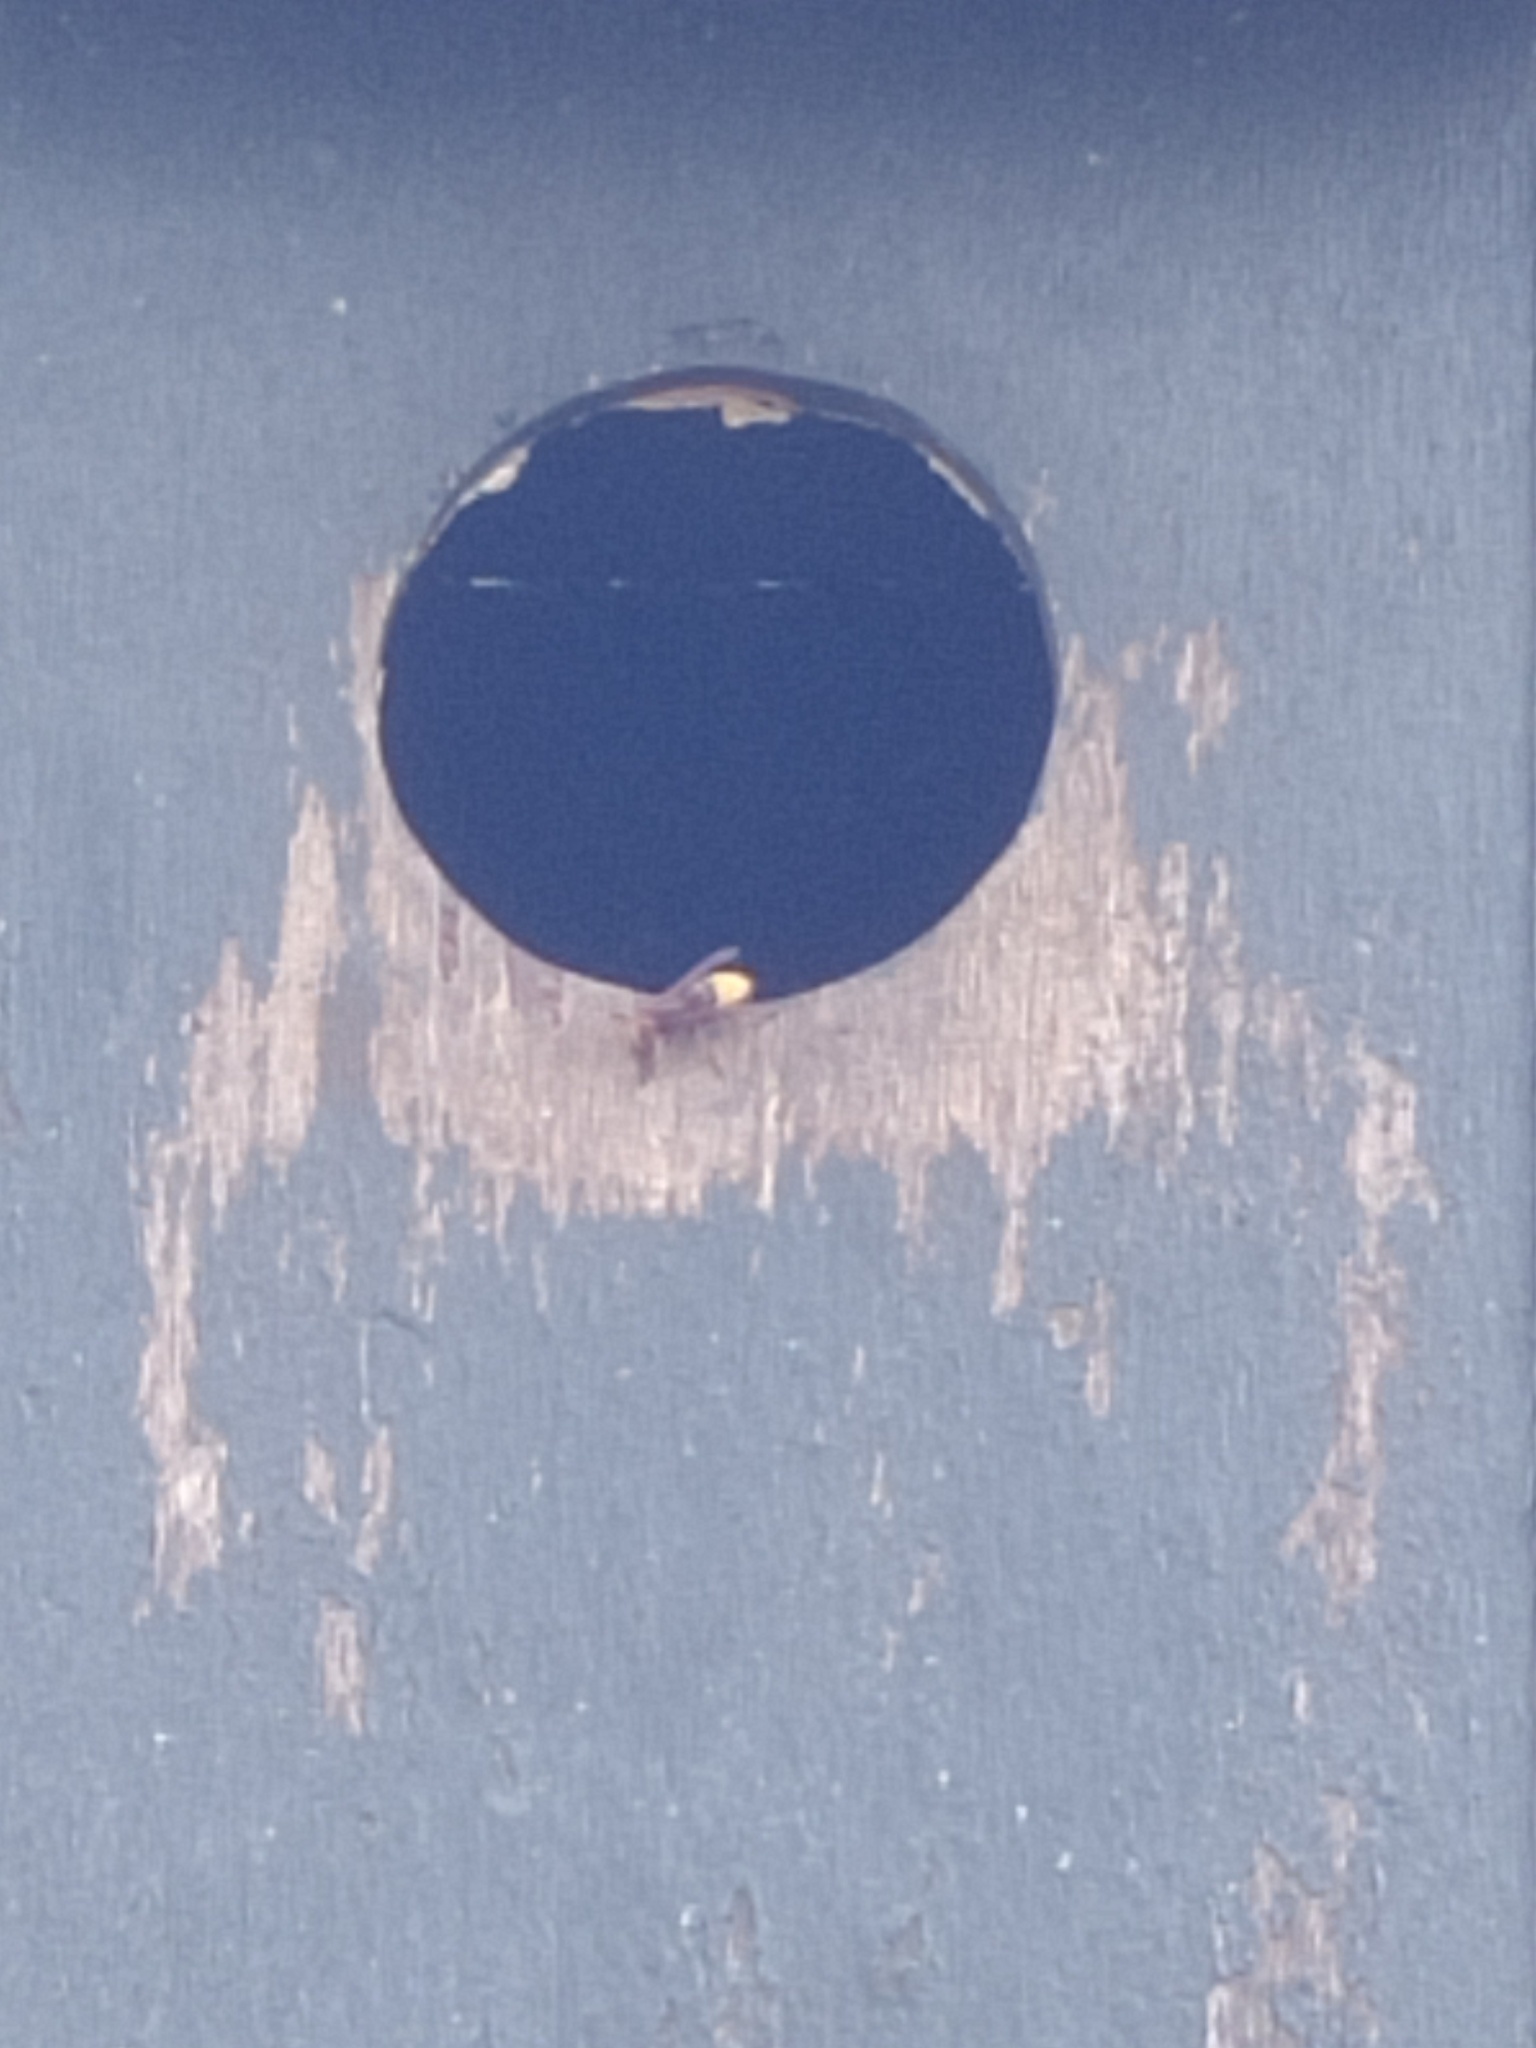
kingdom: Animalia
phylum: Arthropoda
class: Insecta
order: Hymenoptera
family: Vespidae
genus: Vespa
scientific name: Vespa crabro
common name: Hornet
